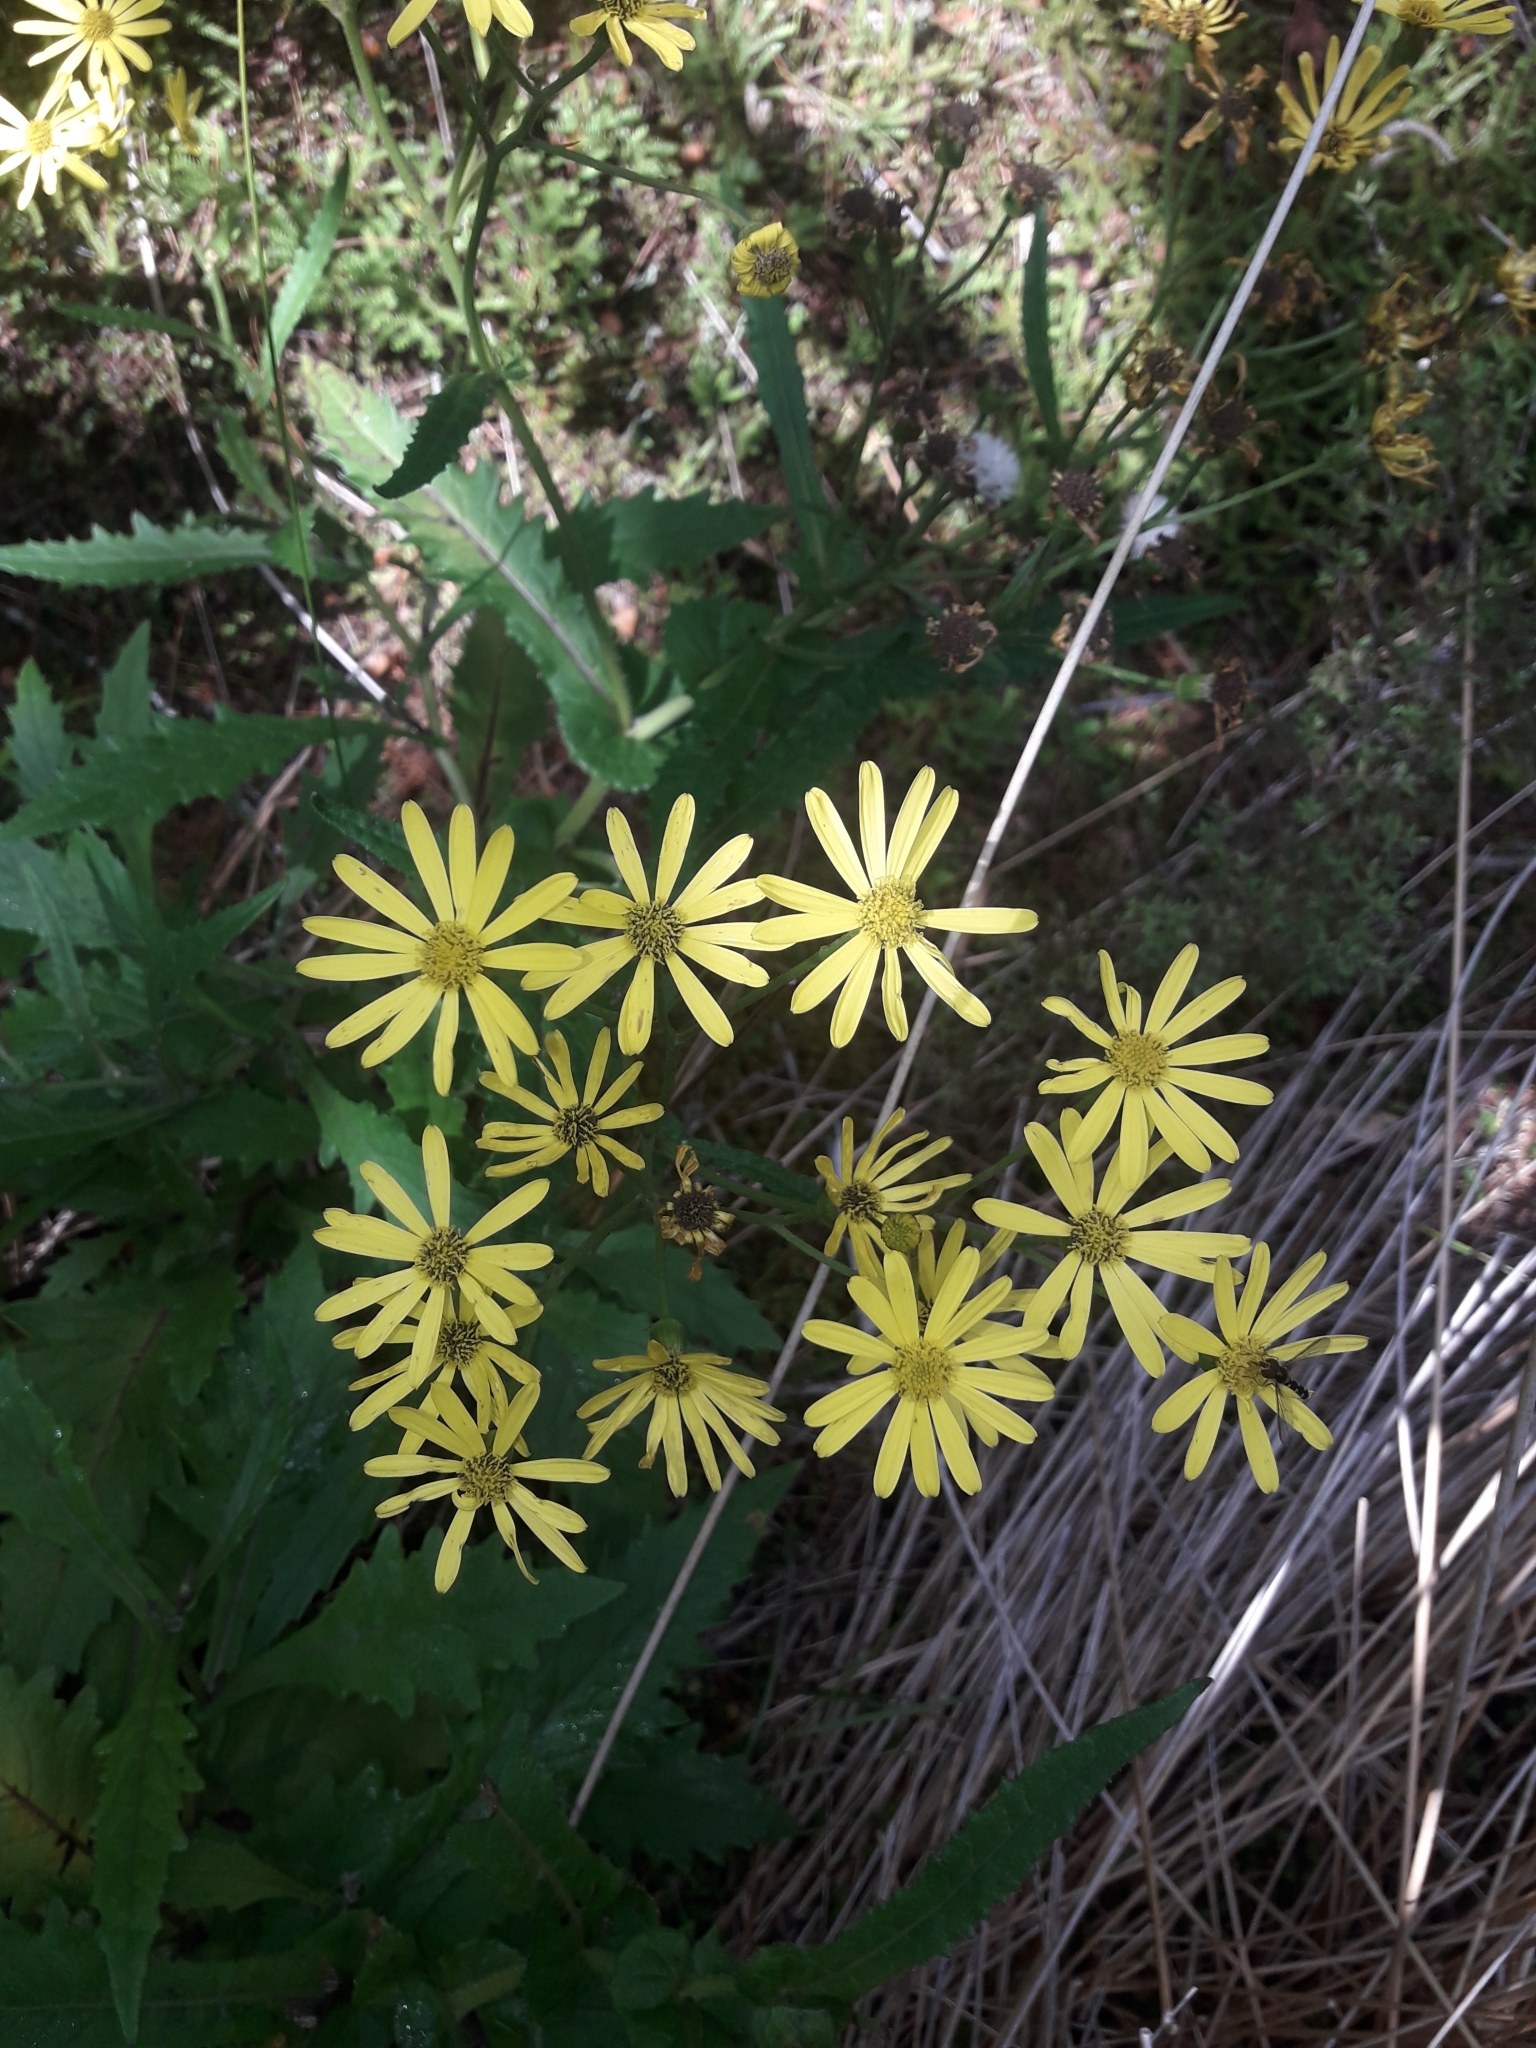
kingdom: Plantae
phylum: Tracheophyta
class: Magnoliopsida
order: Asterales
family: Asteraceae
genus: Senecio
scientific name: Senecio rufiglandulosus
